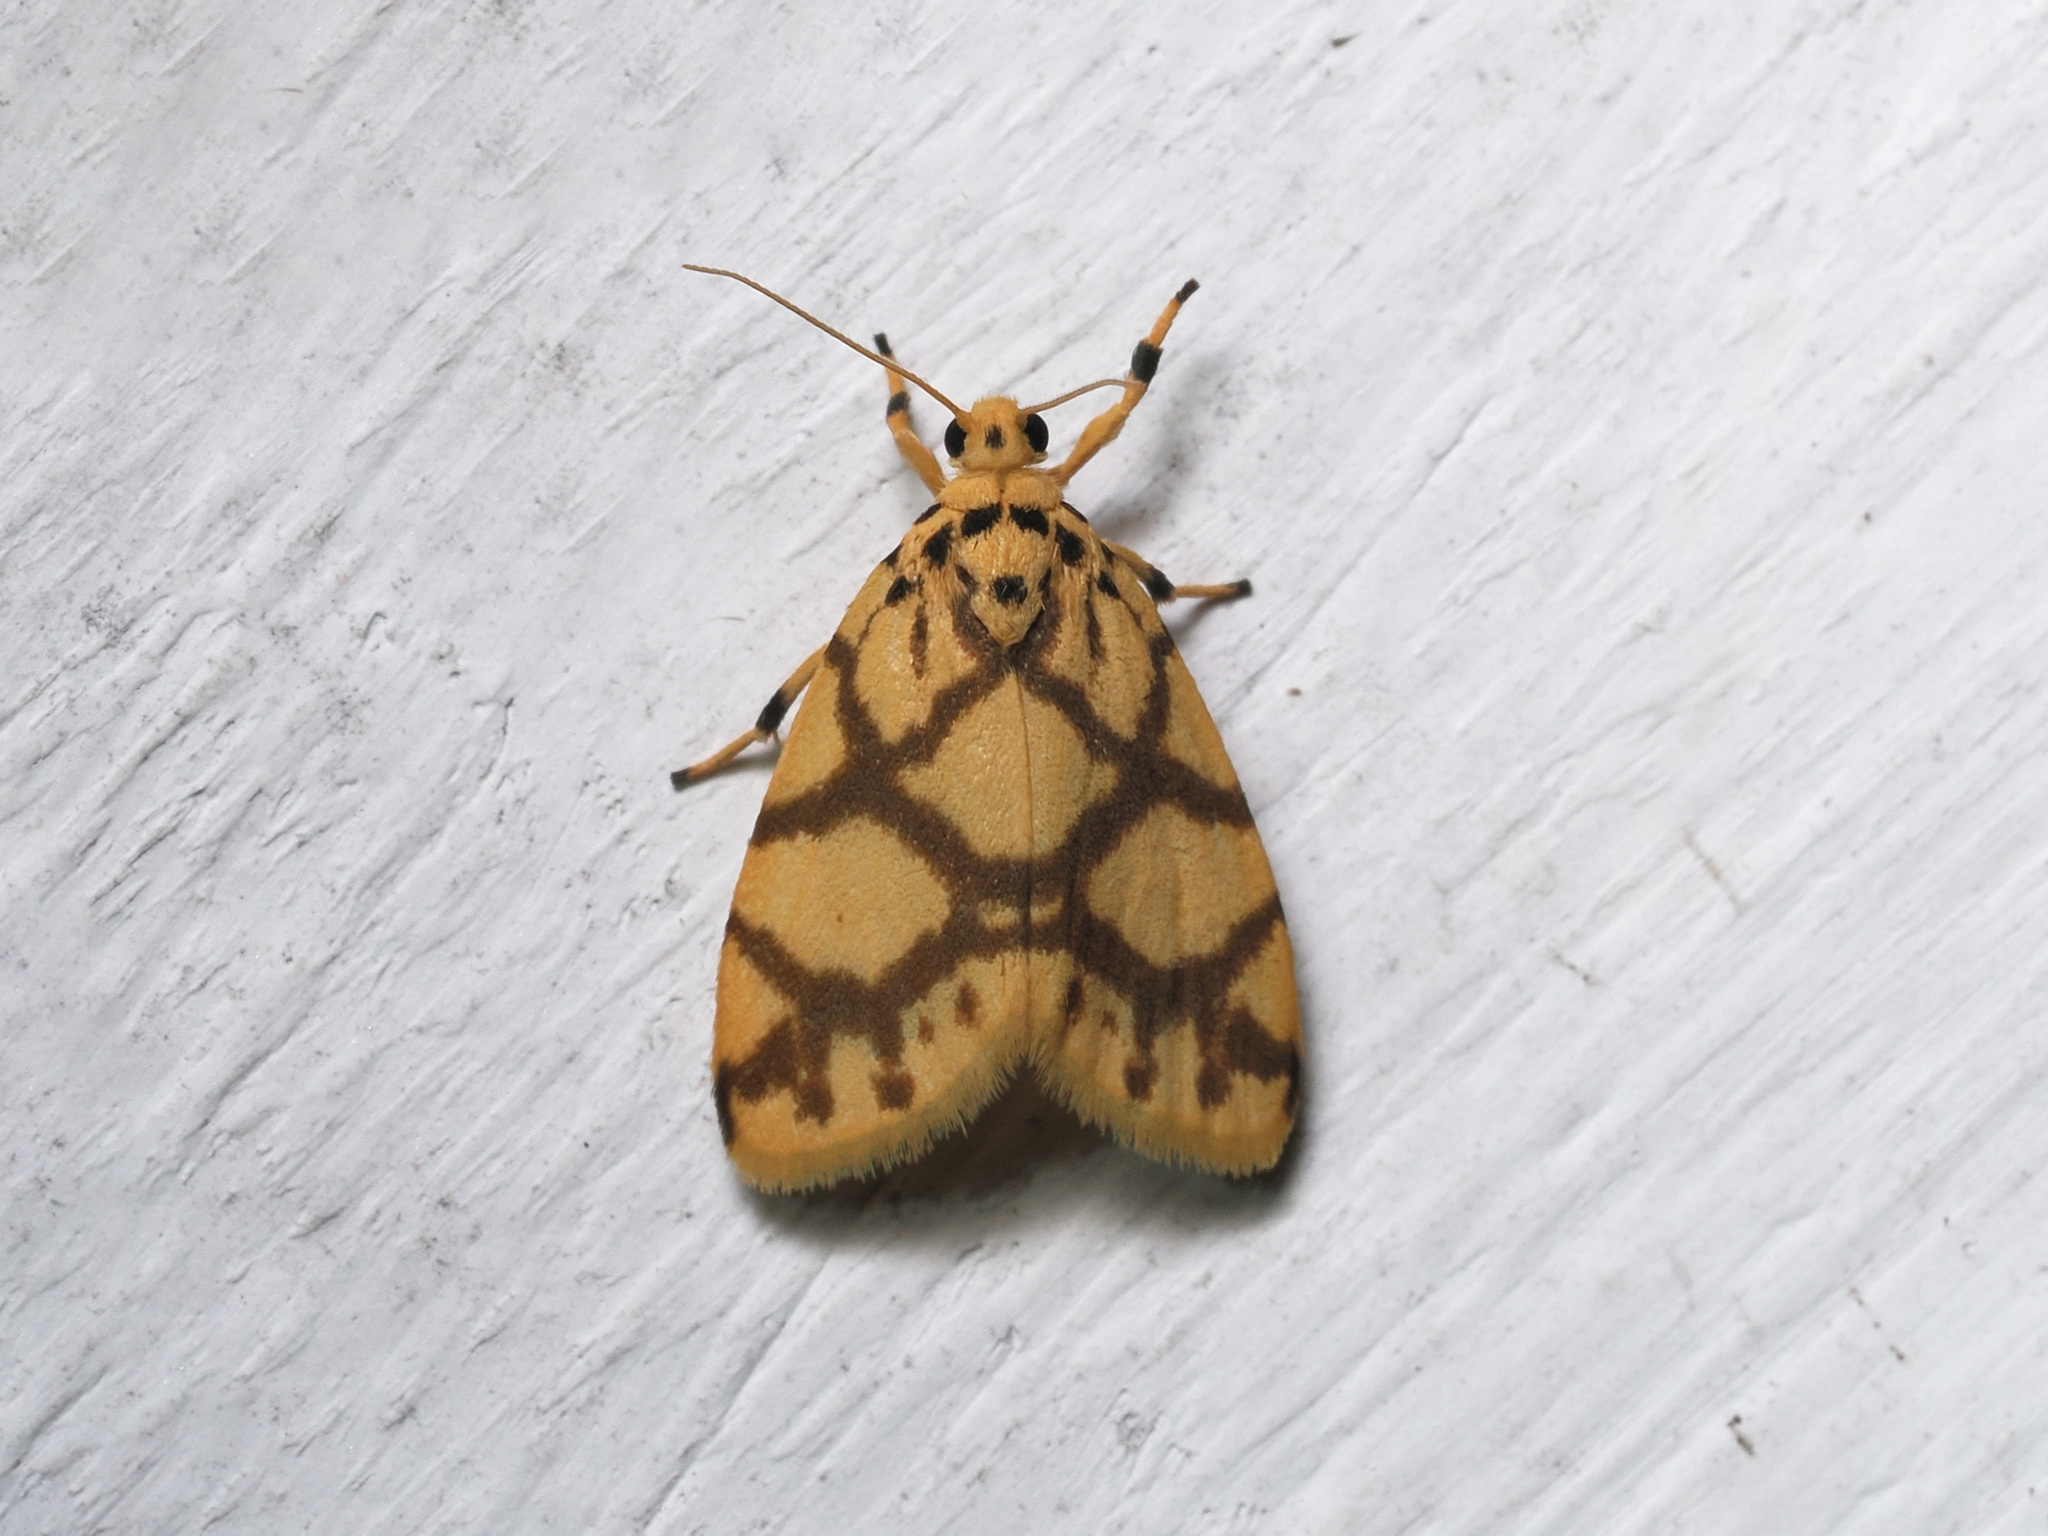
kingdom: Animalia
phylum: Arthropoda
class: Insecta
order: Lepidoptera
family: Erebidae
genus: Miltochrista
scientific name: Miltochrista distributa
